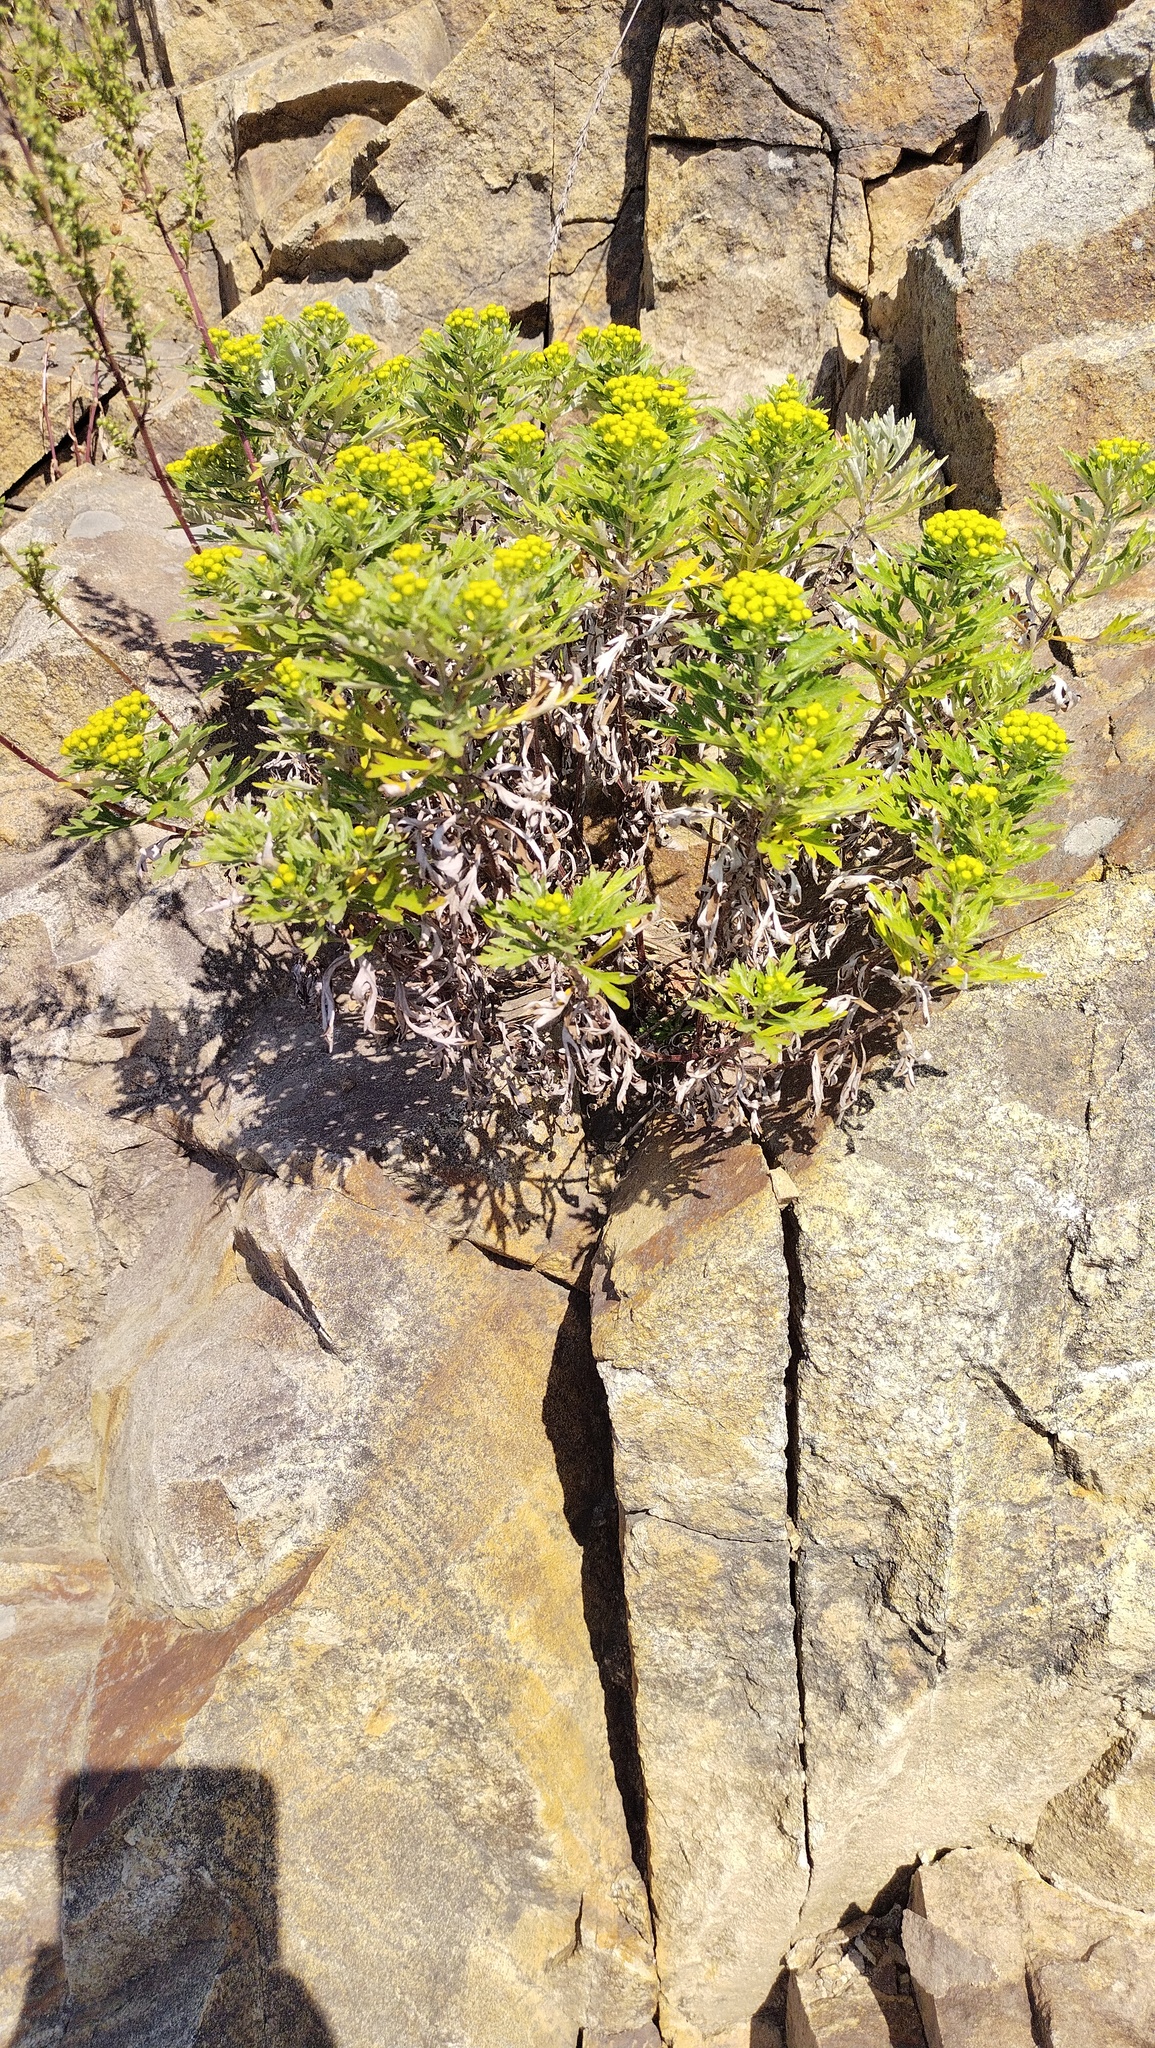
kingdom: Plantae
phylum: Tracheophyta
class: Magnoliopsida
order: Asterales
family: Asteraceae
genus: Ajania
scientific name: Ajania pallasiana
